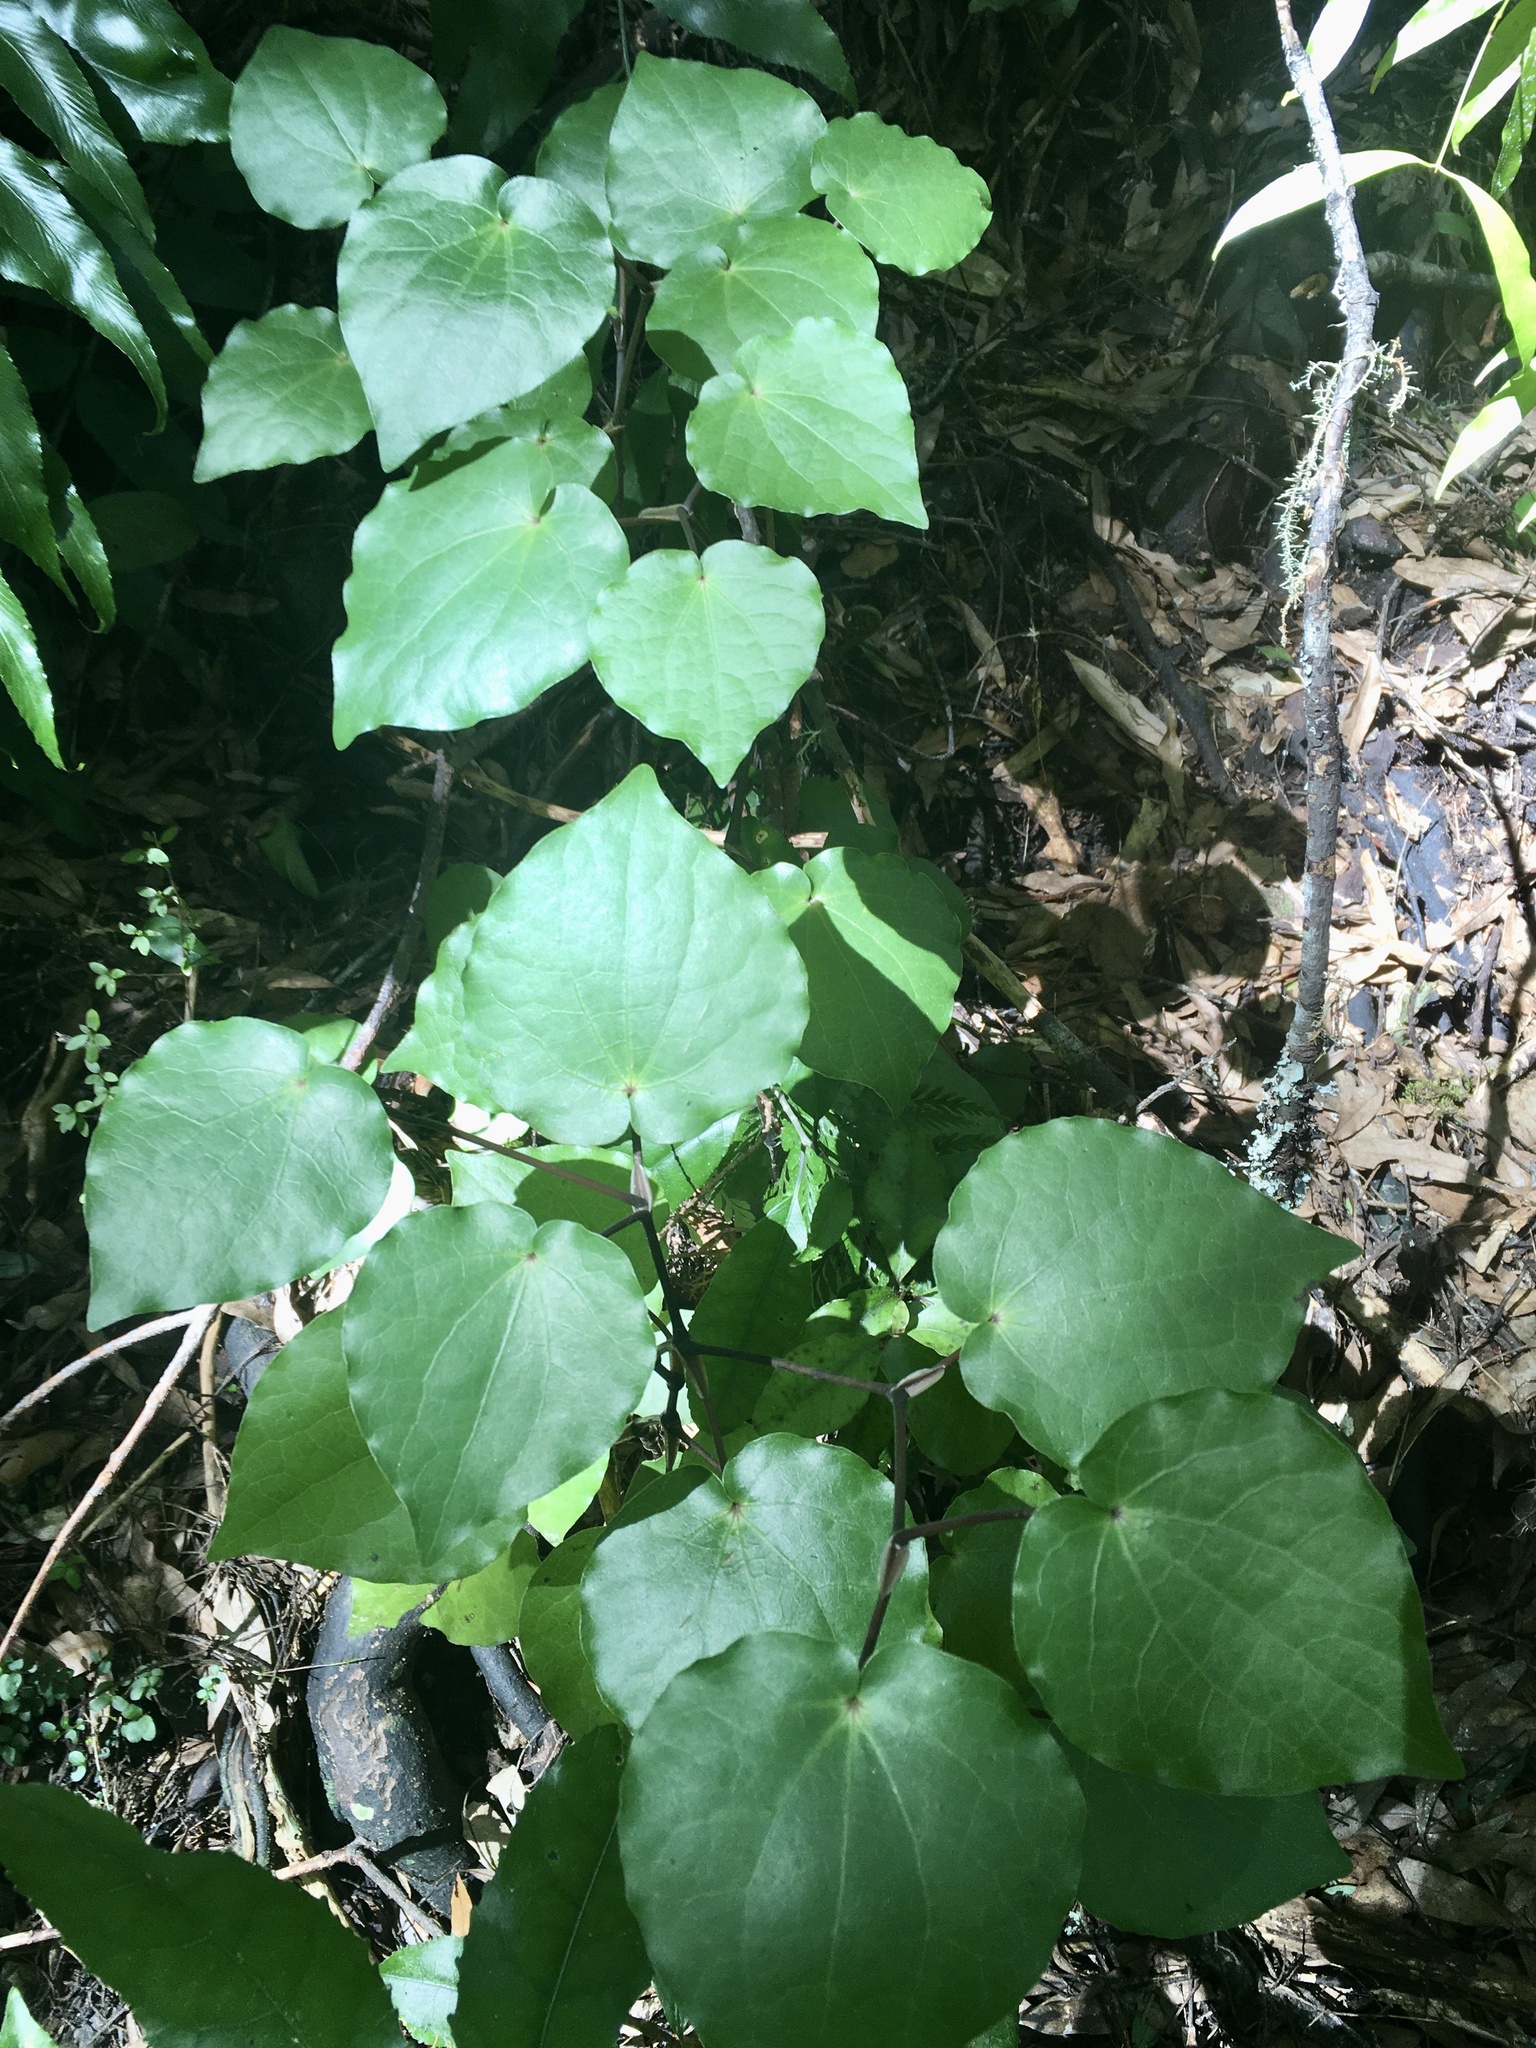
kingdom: Plantae
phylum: Tracheophyta
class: Magnoliopsida
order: Piperales
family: Piperaceae
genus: Macropiper
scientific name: Macropiper excelsum
